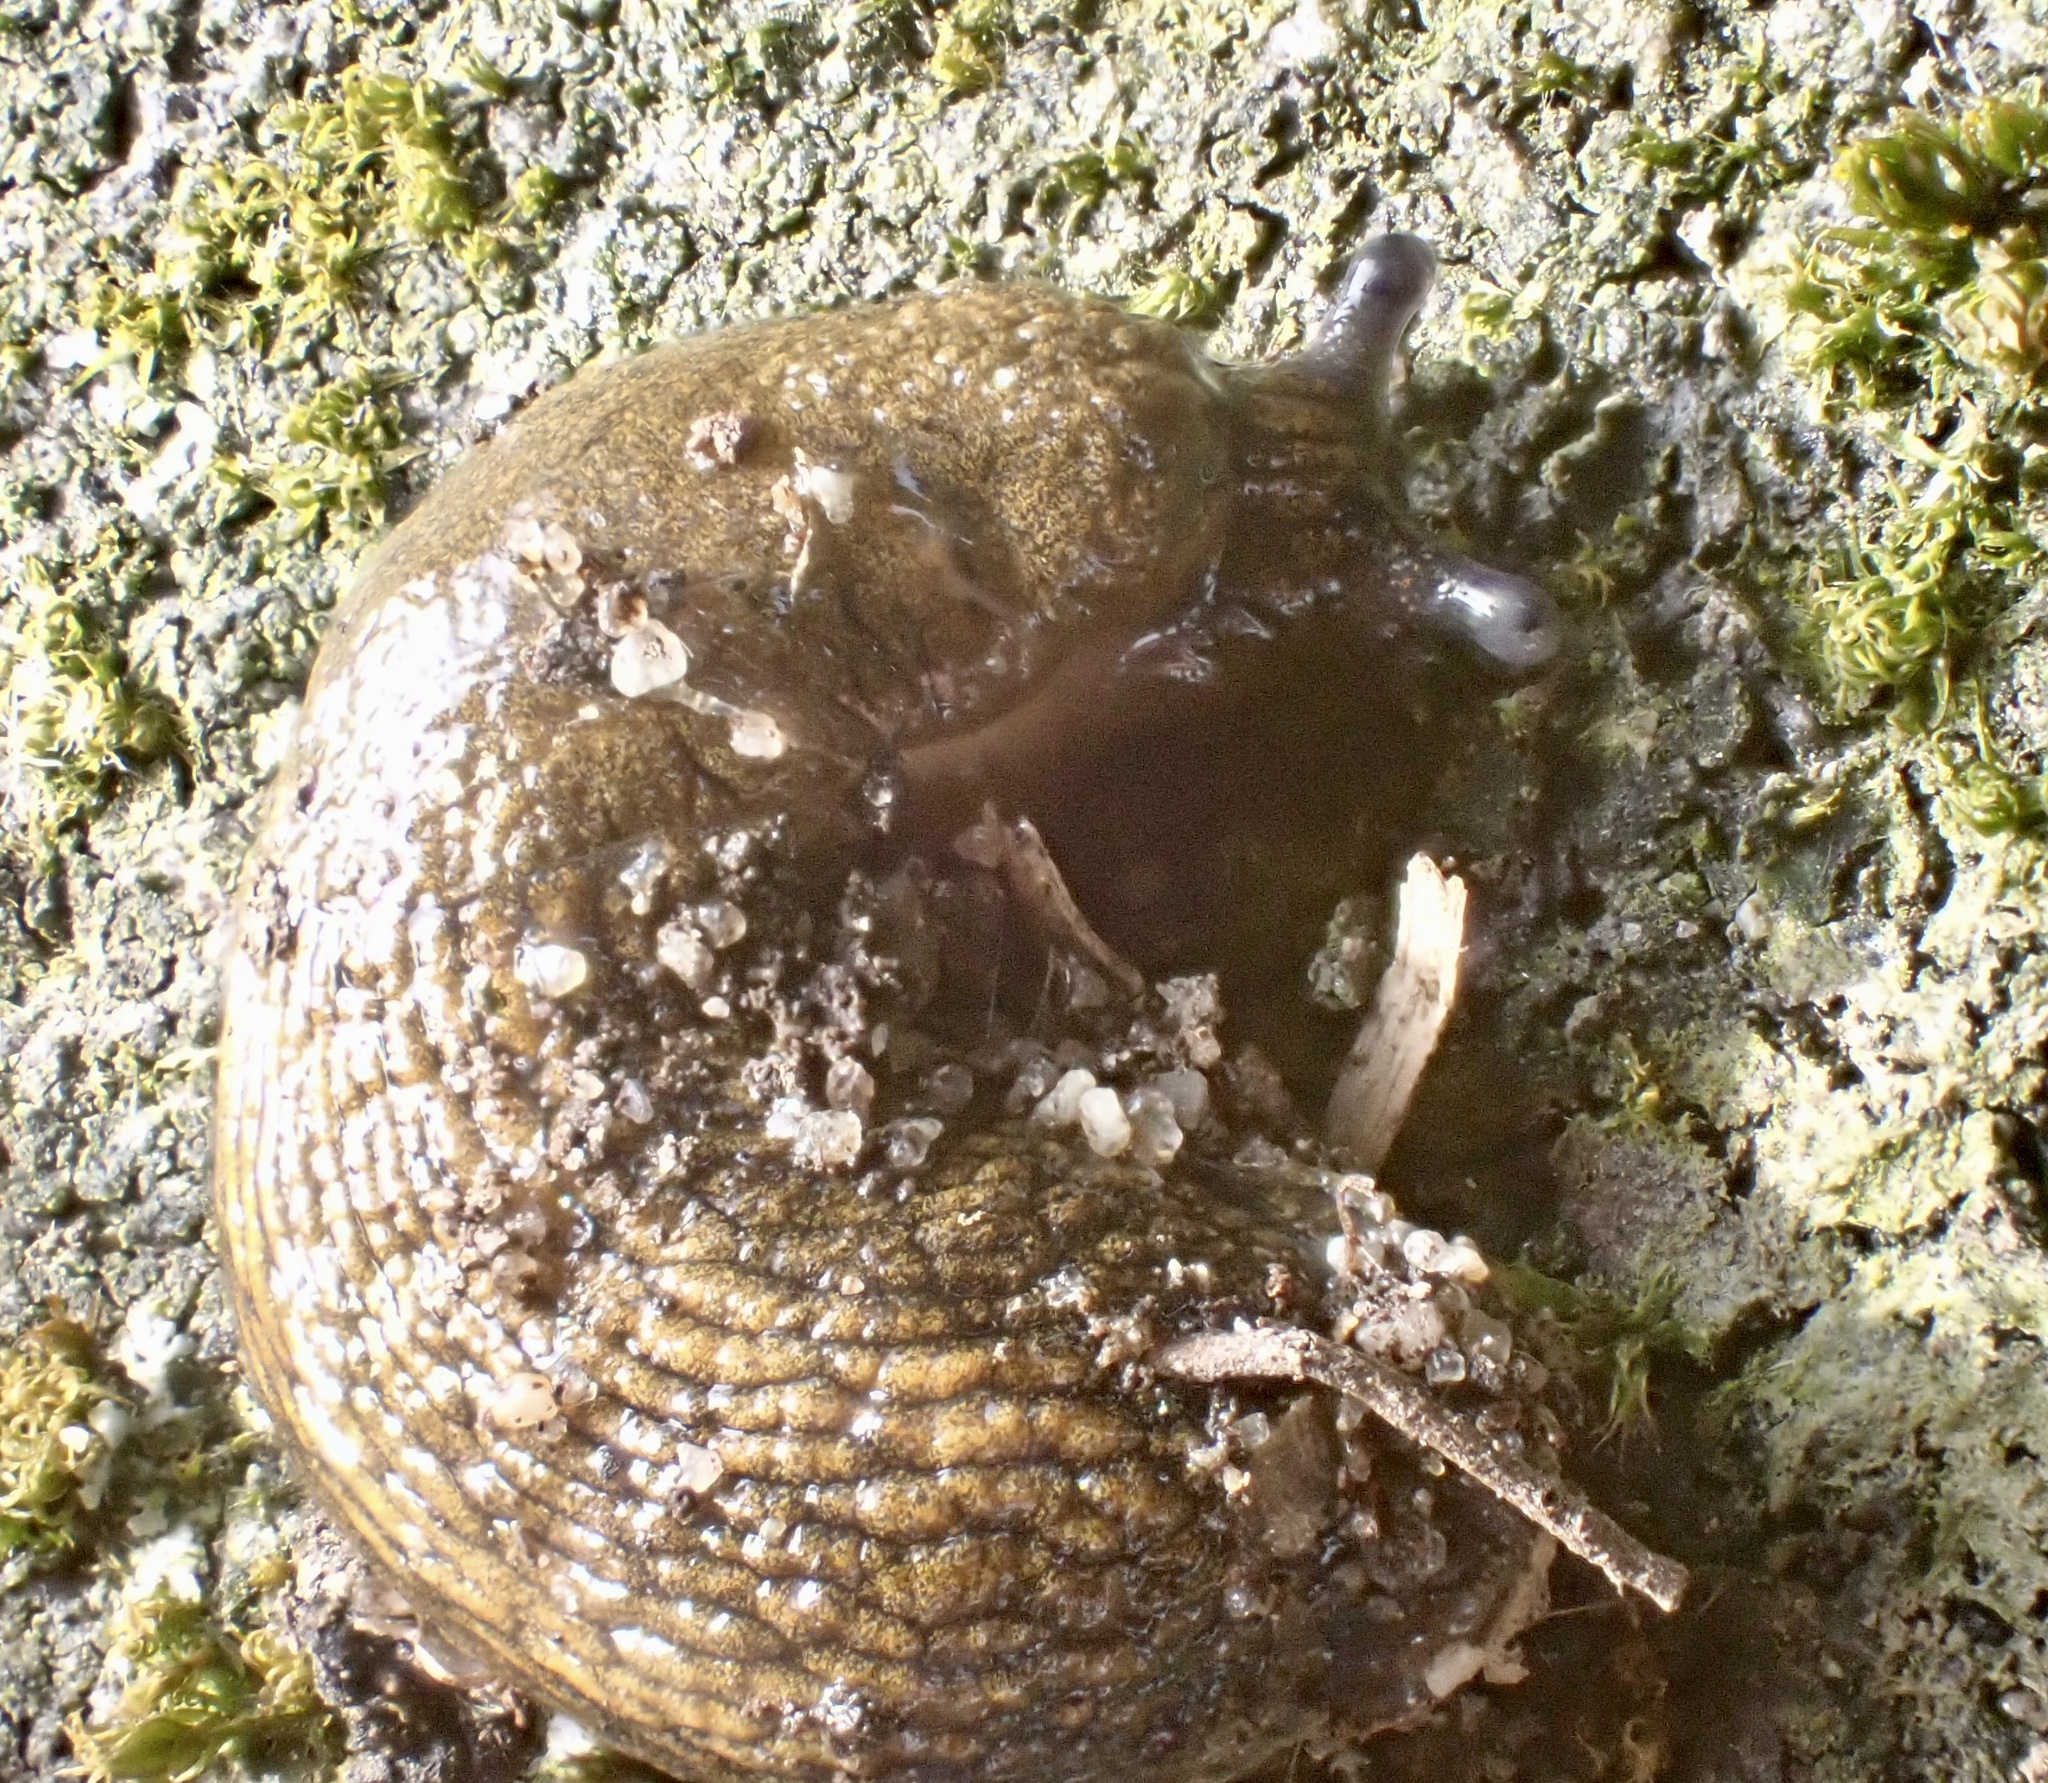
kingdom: Animalia
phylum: Mollusca
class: Gastropoda
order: Stylommatophora
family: Arionidae
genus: Arion
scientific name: Arion vulgaris
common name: Lusitanian slug
